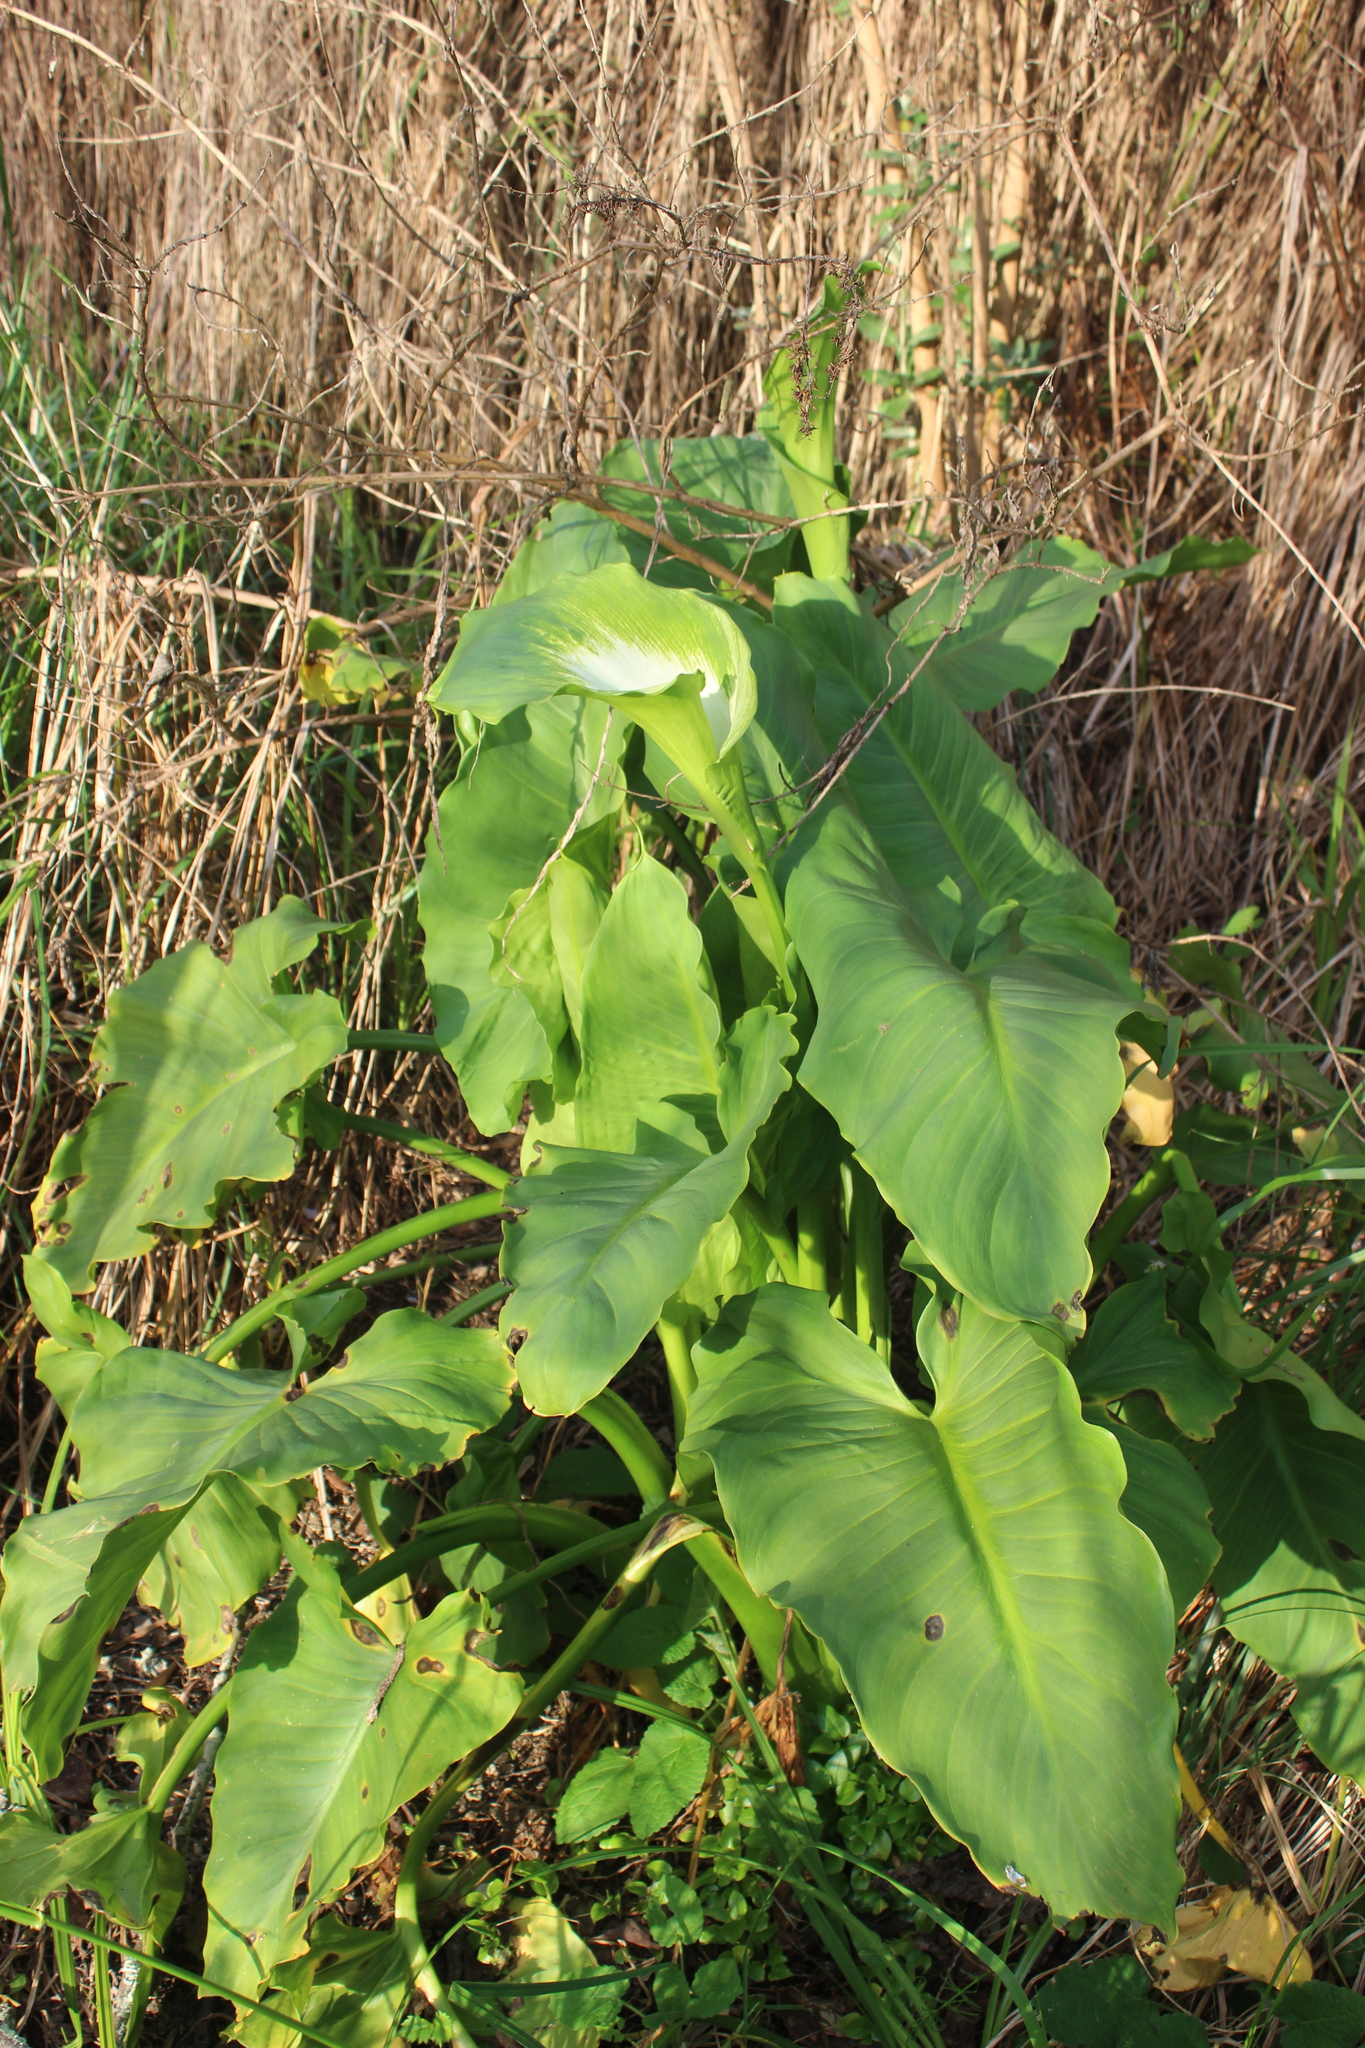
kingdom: Plantae
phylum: Tracheophyta
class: Liliopsida
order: Alismatales
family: Araceae
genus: Zantedeschia
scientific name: Zantedeschia aethiopica
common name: Altar-lily
